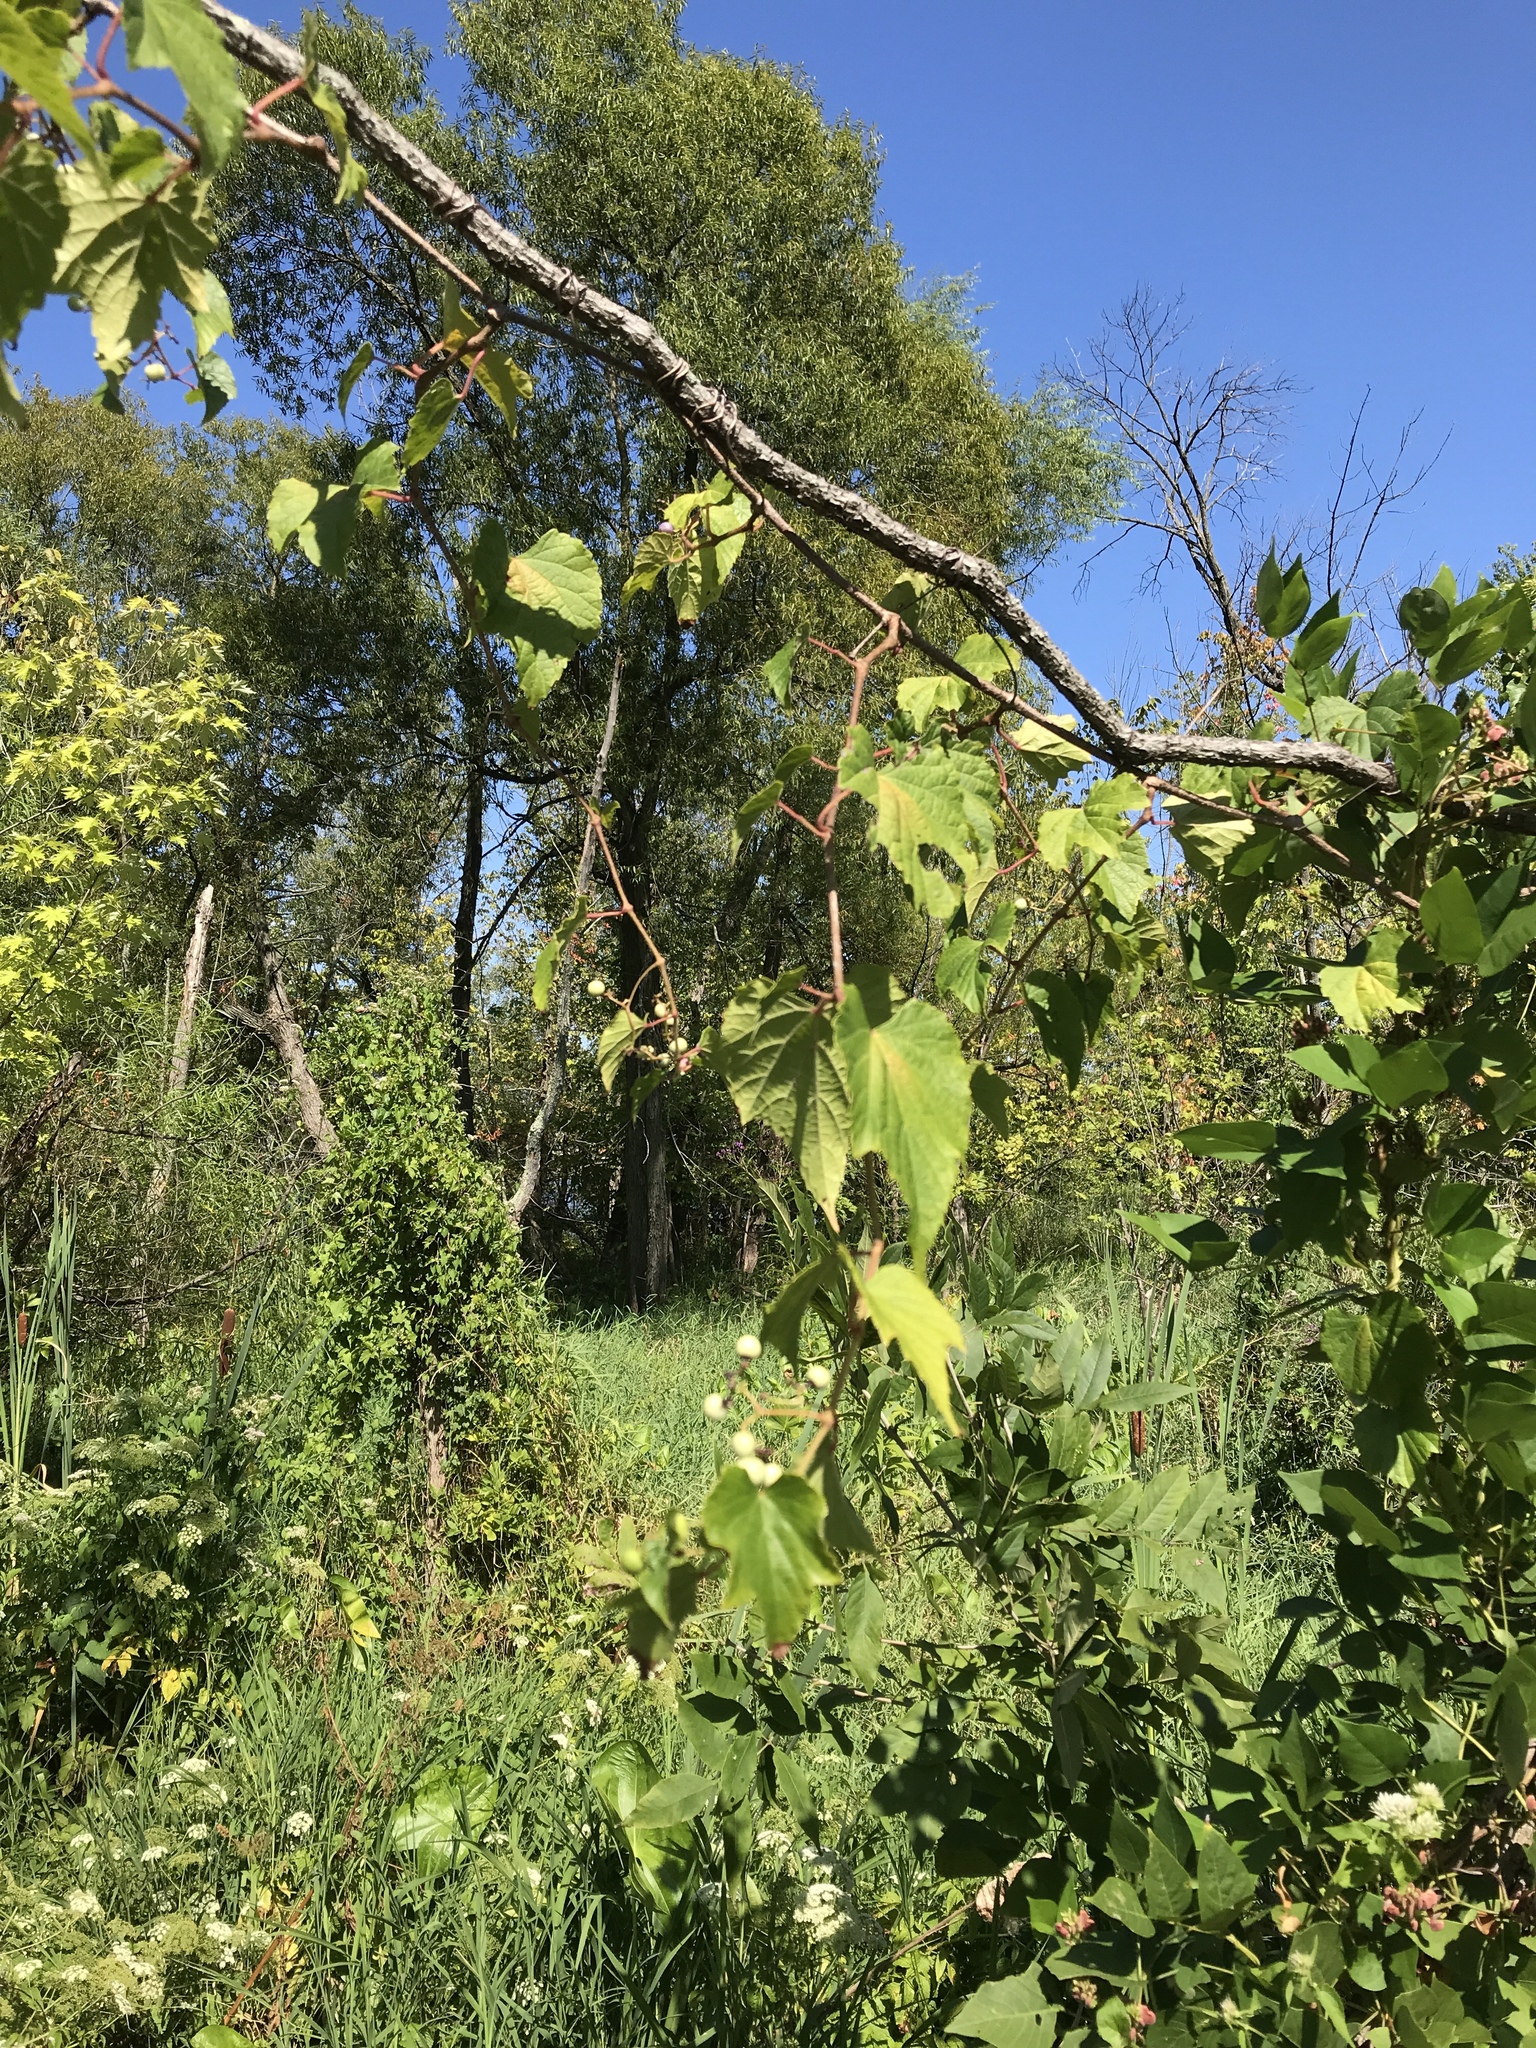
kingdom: Plantae
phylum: Tracheophyta
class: Magnoliopsida
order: Vitales
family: Vitaceae
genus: Ampelopsis
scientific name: Ampelopsis glandulosa
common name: Amur peppervine
